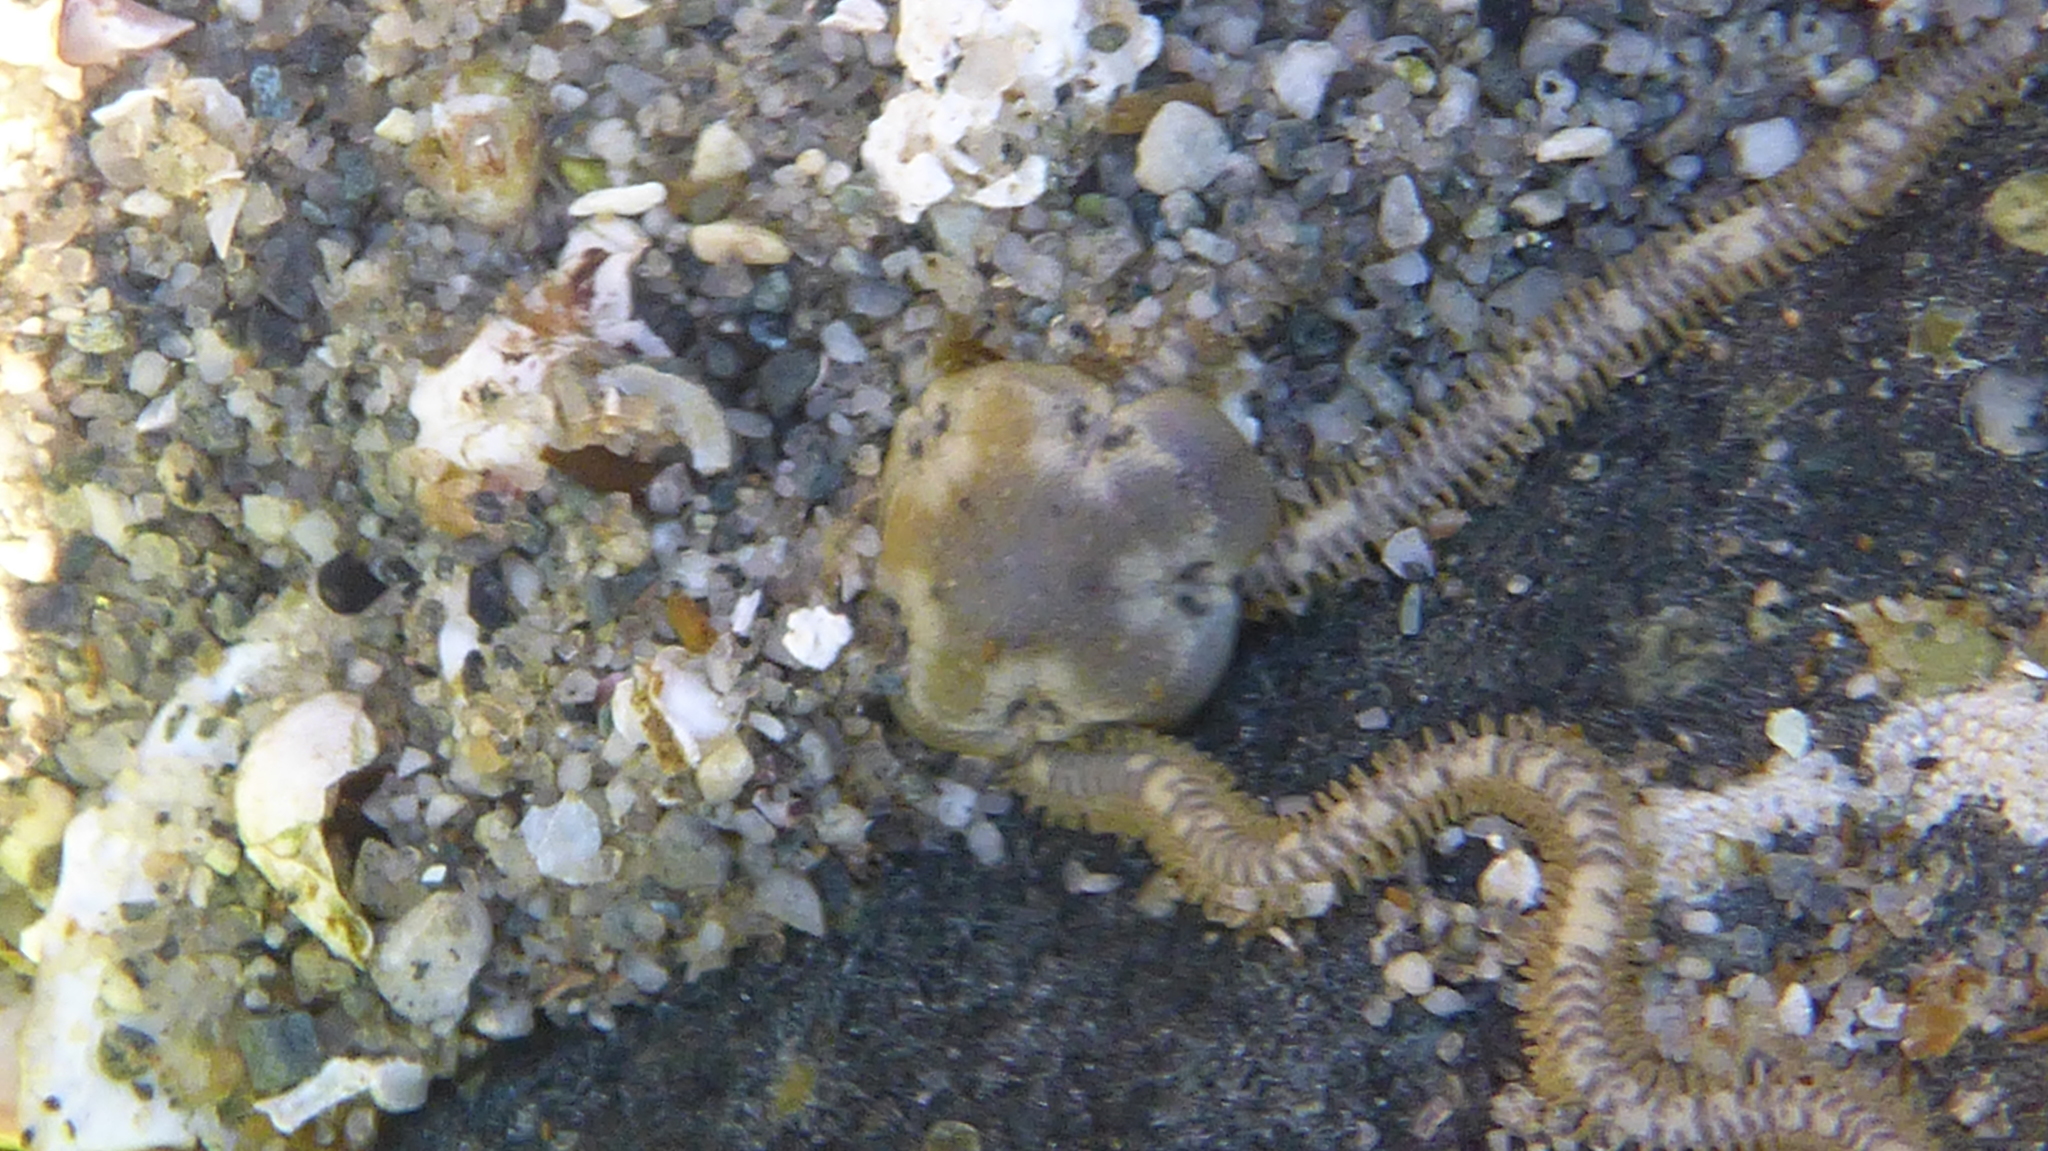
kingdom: Animalia
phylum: Echinodermata
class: Ophiuroidea
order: Amphilepidida
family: Amphiuridae
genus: Amphiodia
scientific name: Amphiodia occidentalis
